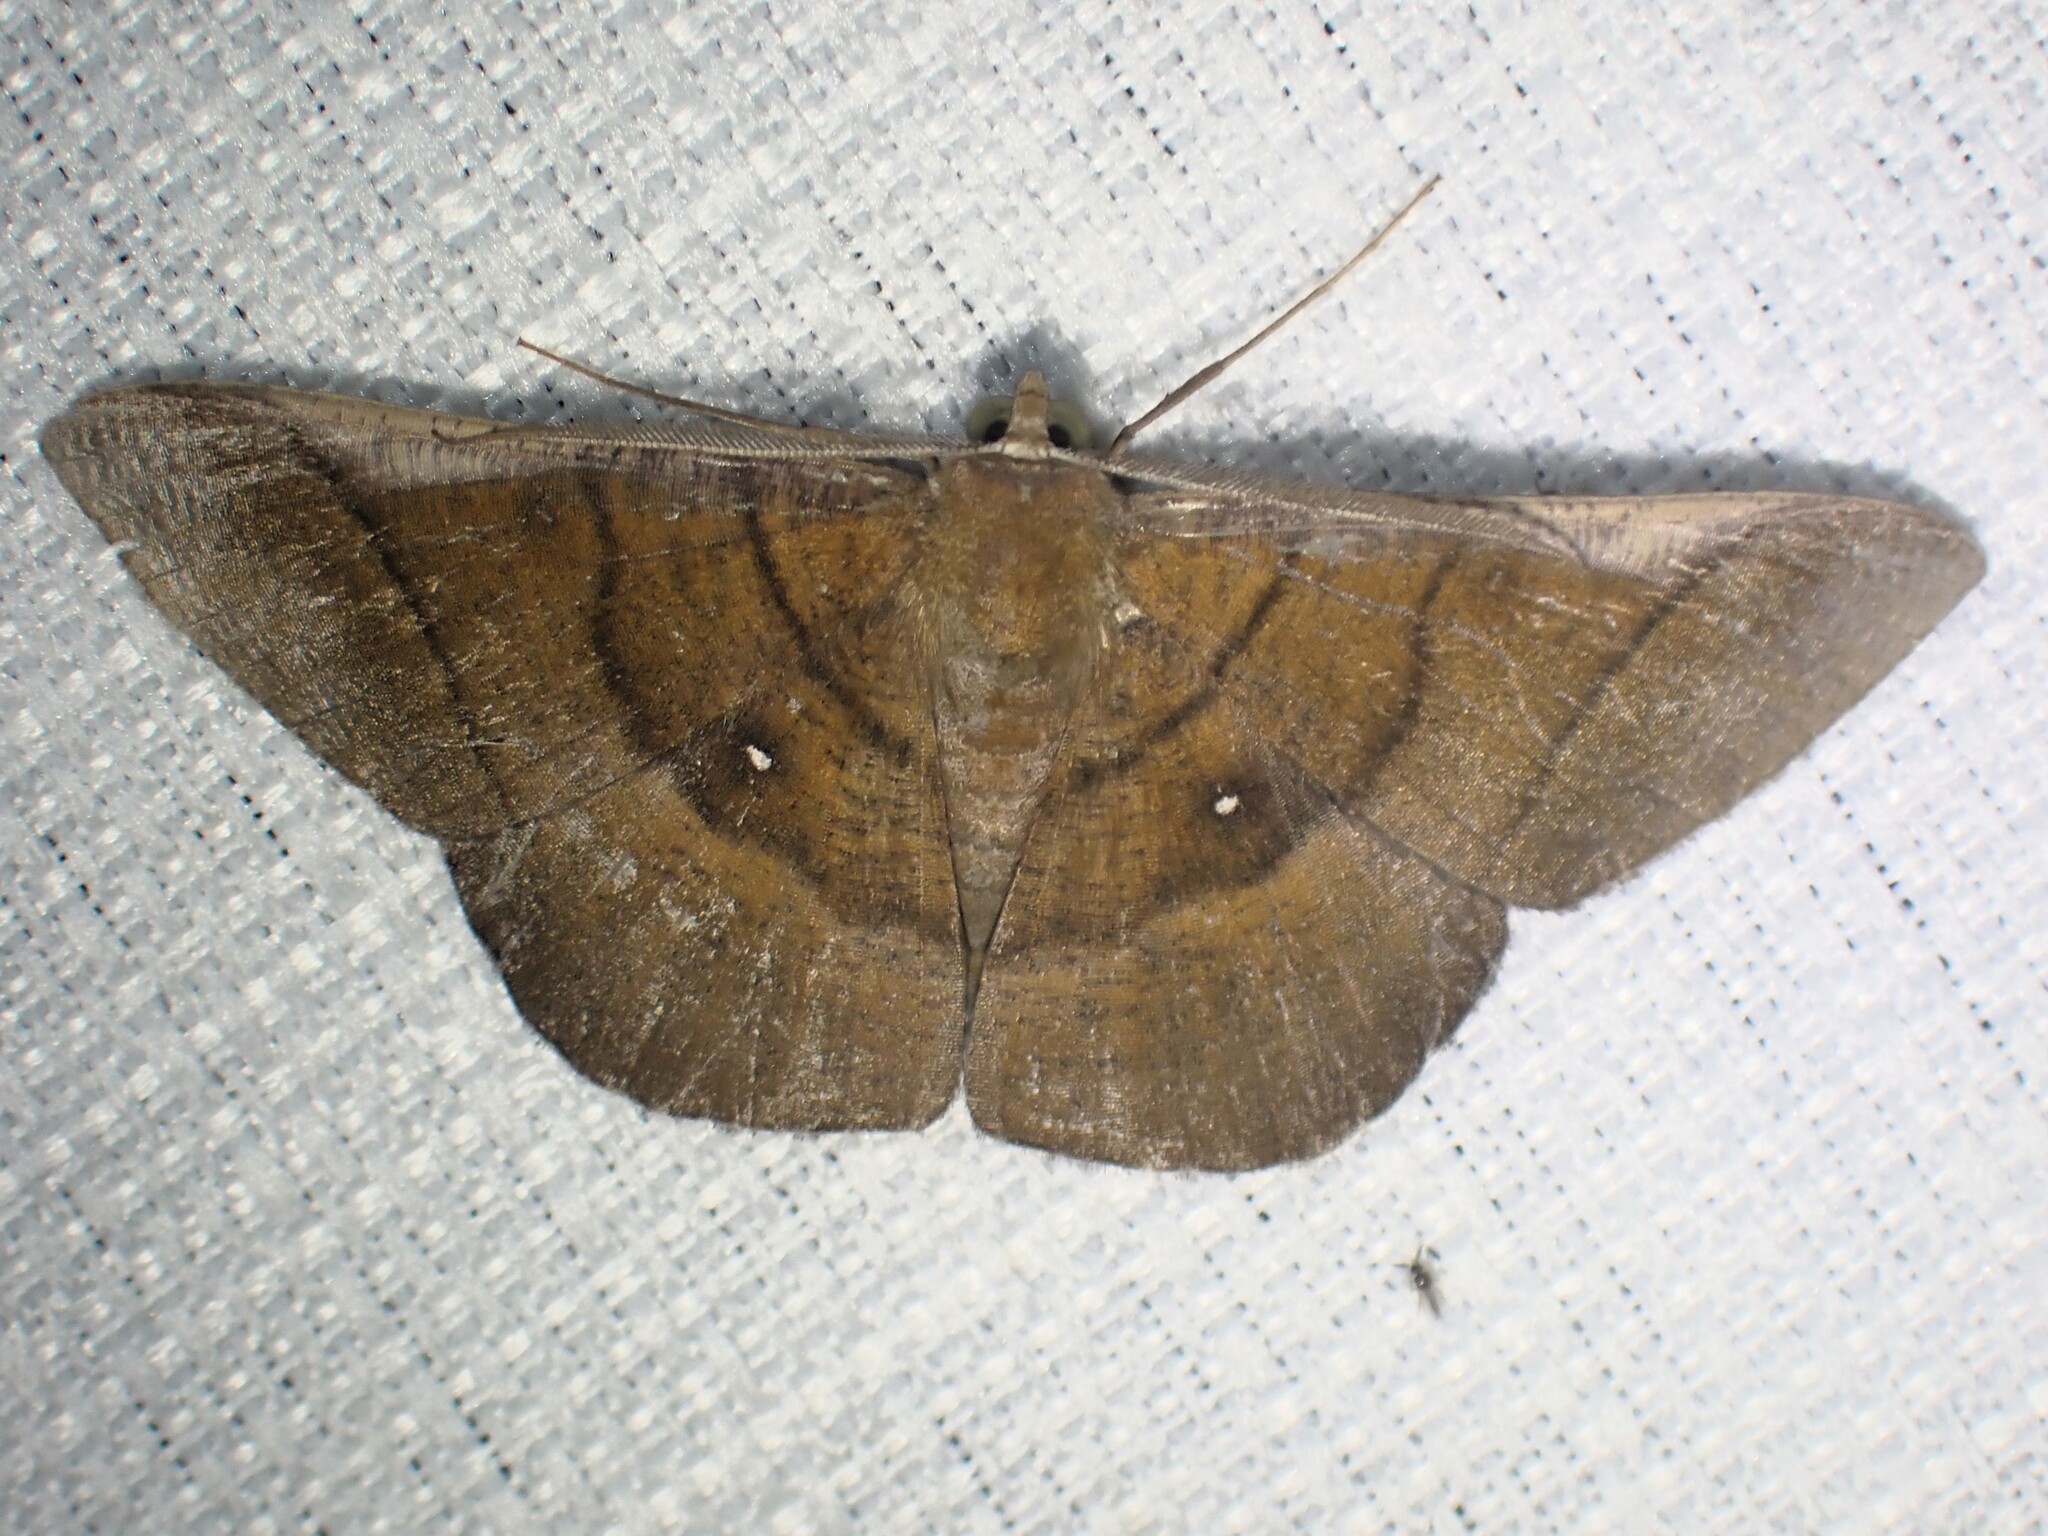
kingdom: Animalia
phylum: Arthropoda
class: Insecta
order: Lepidoptera
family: Geometridae
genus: Sphacelodes
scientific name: Sphacelodes vulneraria
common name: Looper moth
